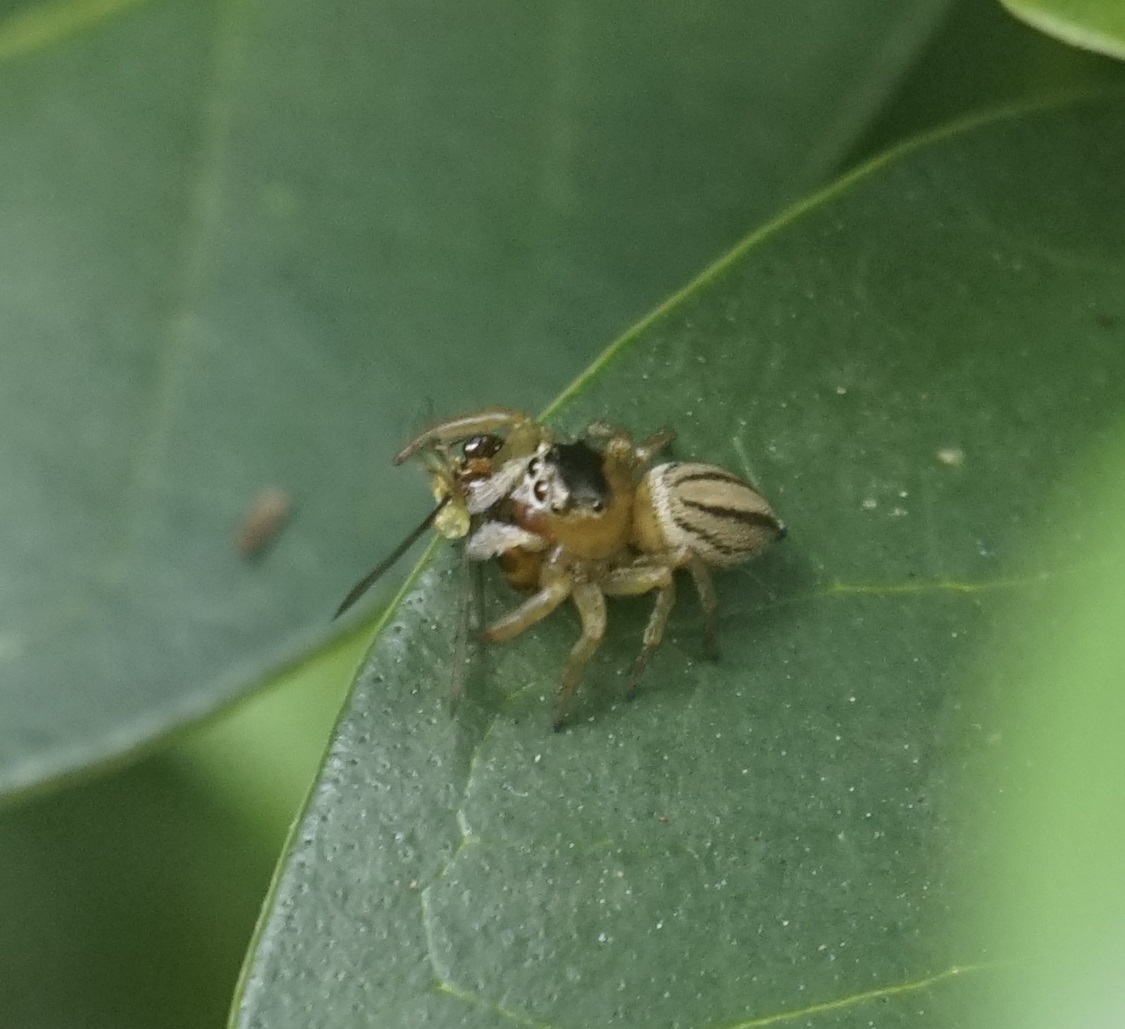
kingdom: Animalia
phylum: Arthropoda
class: Arachnida
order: Araneae
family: Salticidae
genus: Maratus
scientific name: Maratus scutulatus
